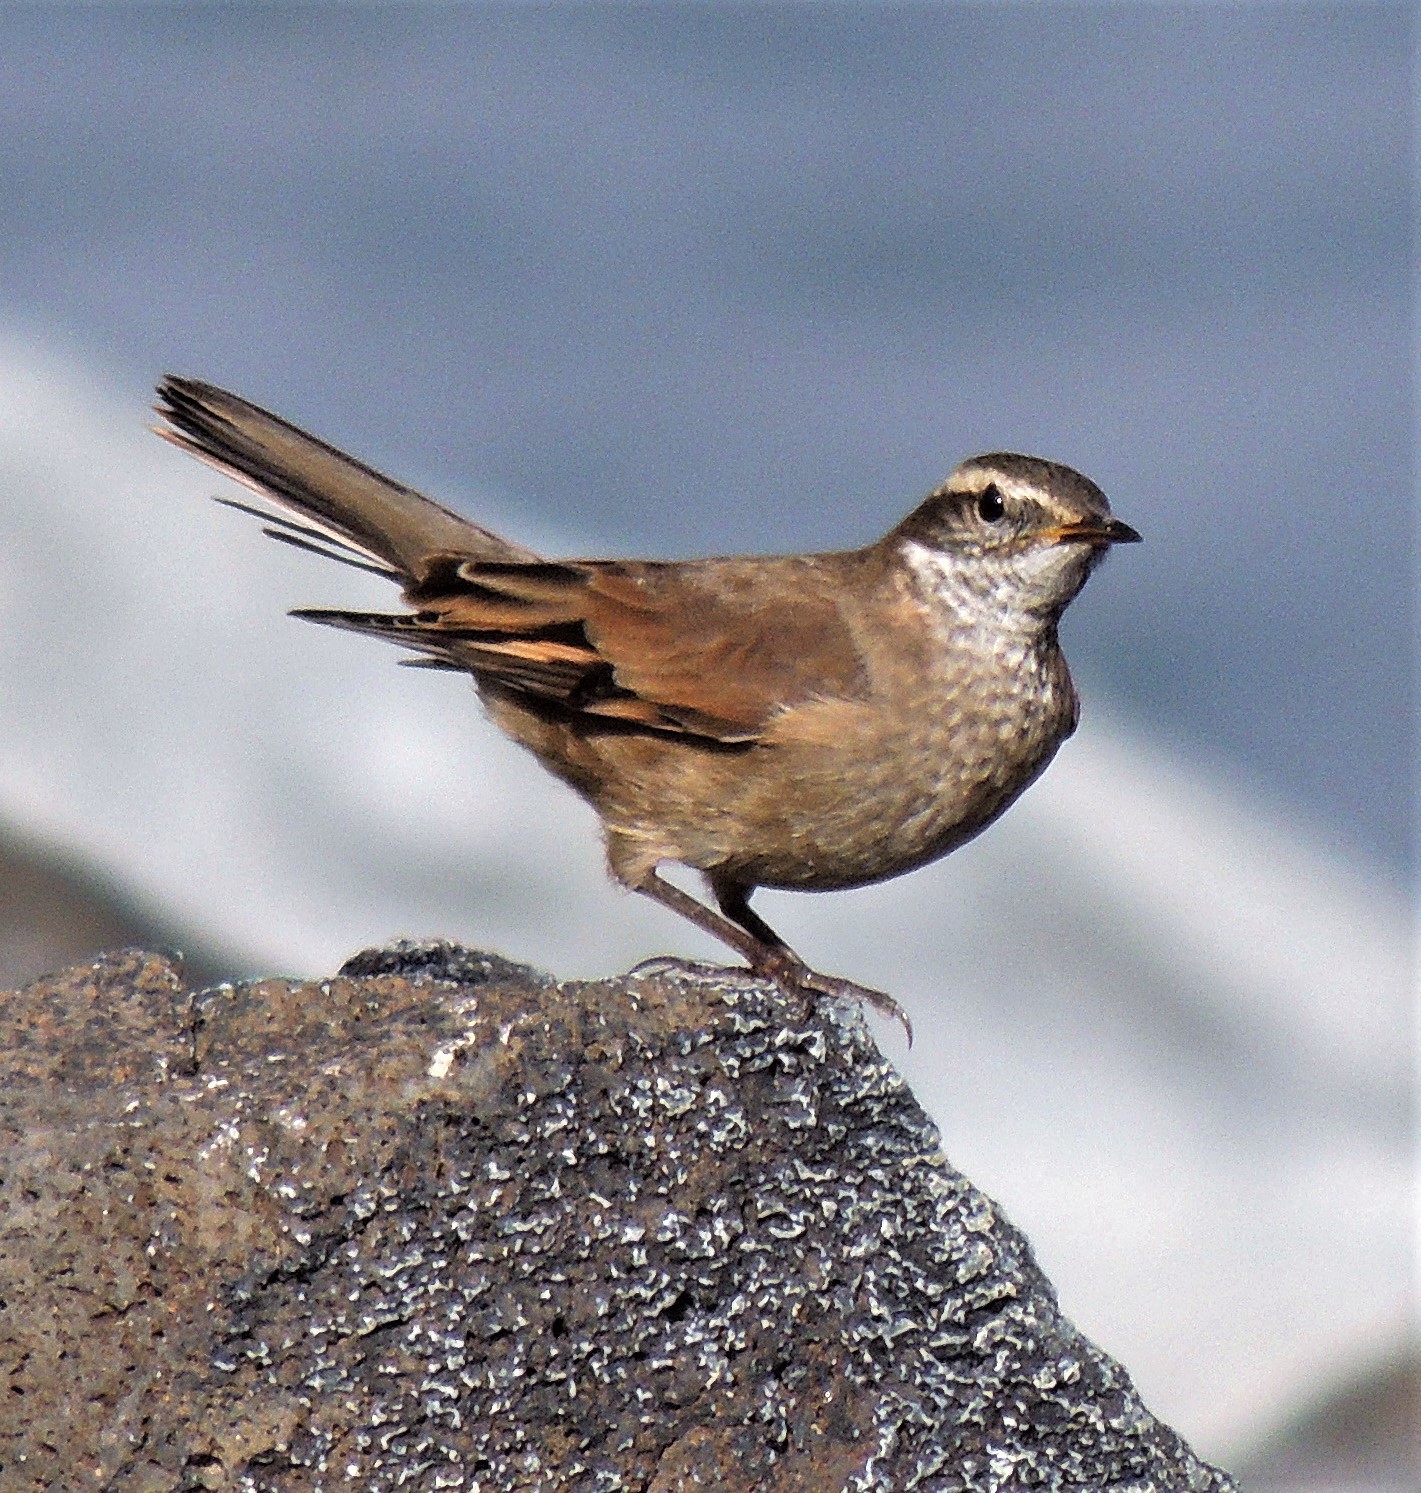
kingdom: Animalia
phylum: Chordata
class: Aves
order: Passeriformes
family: Furnariidae
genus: Cinclodes
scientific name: Cinclodes fuscus
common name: Buff-winged cinclodes
